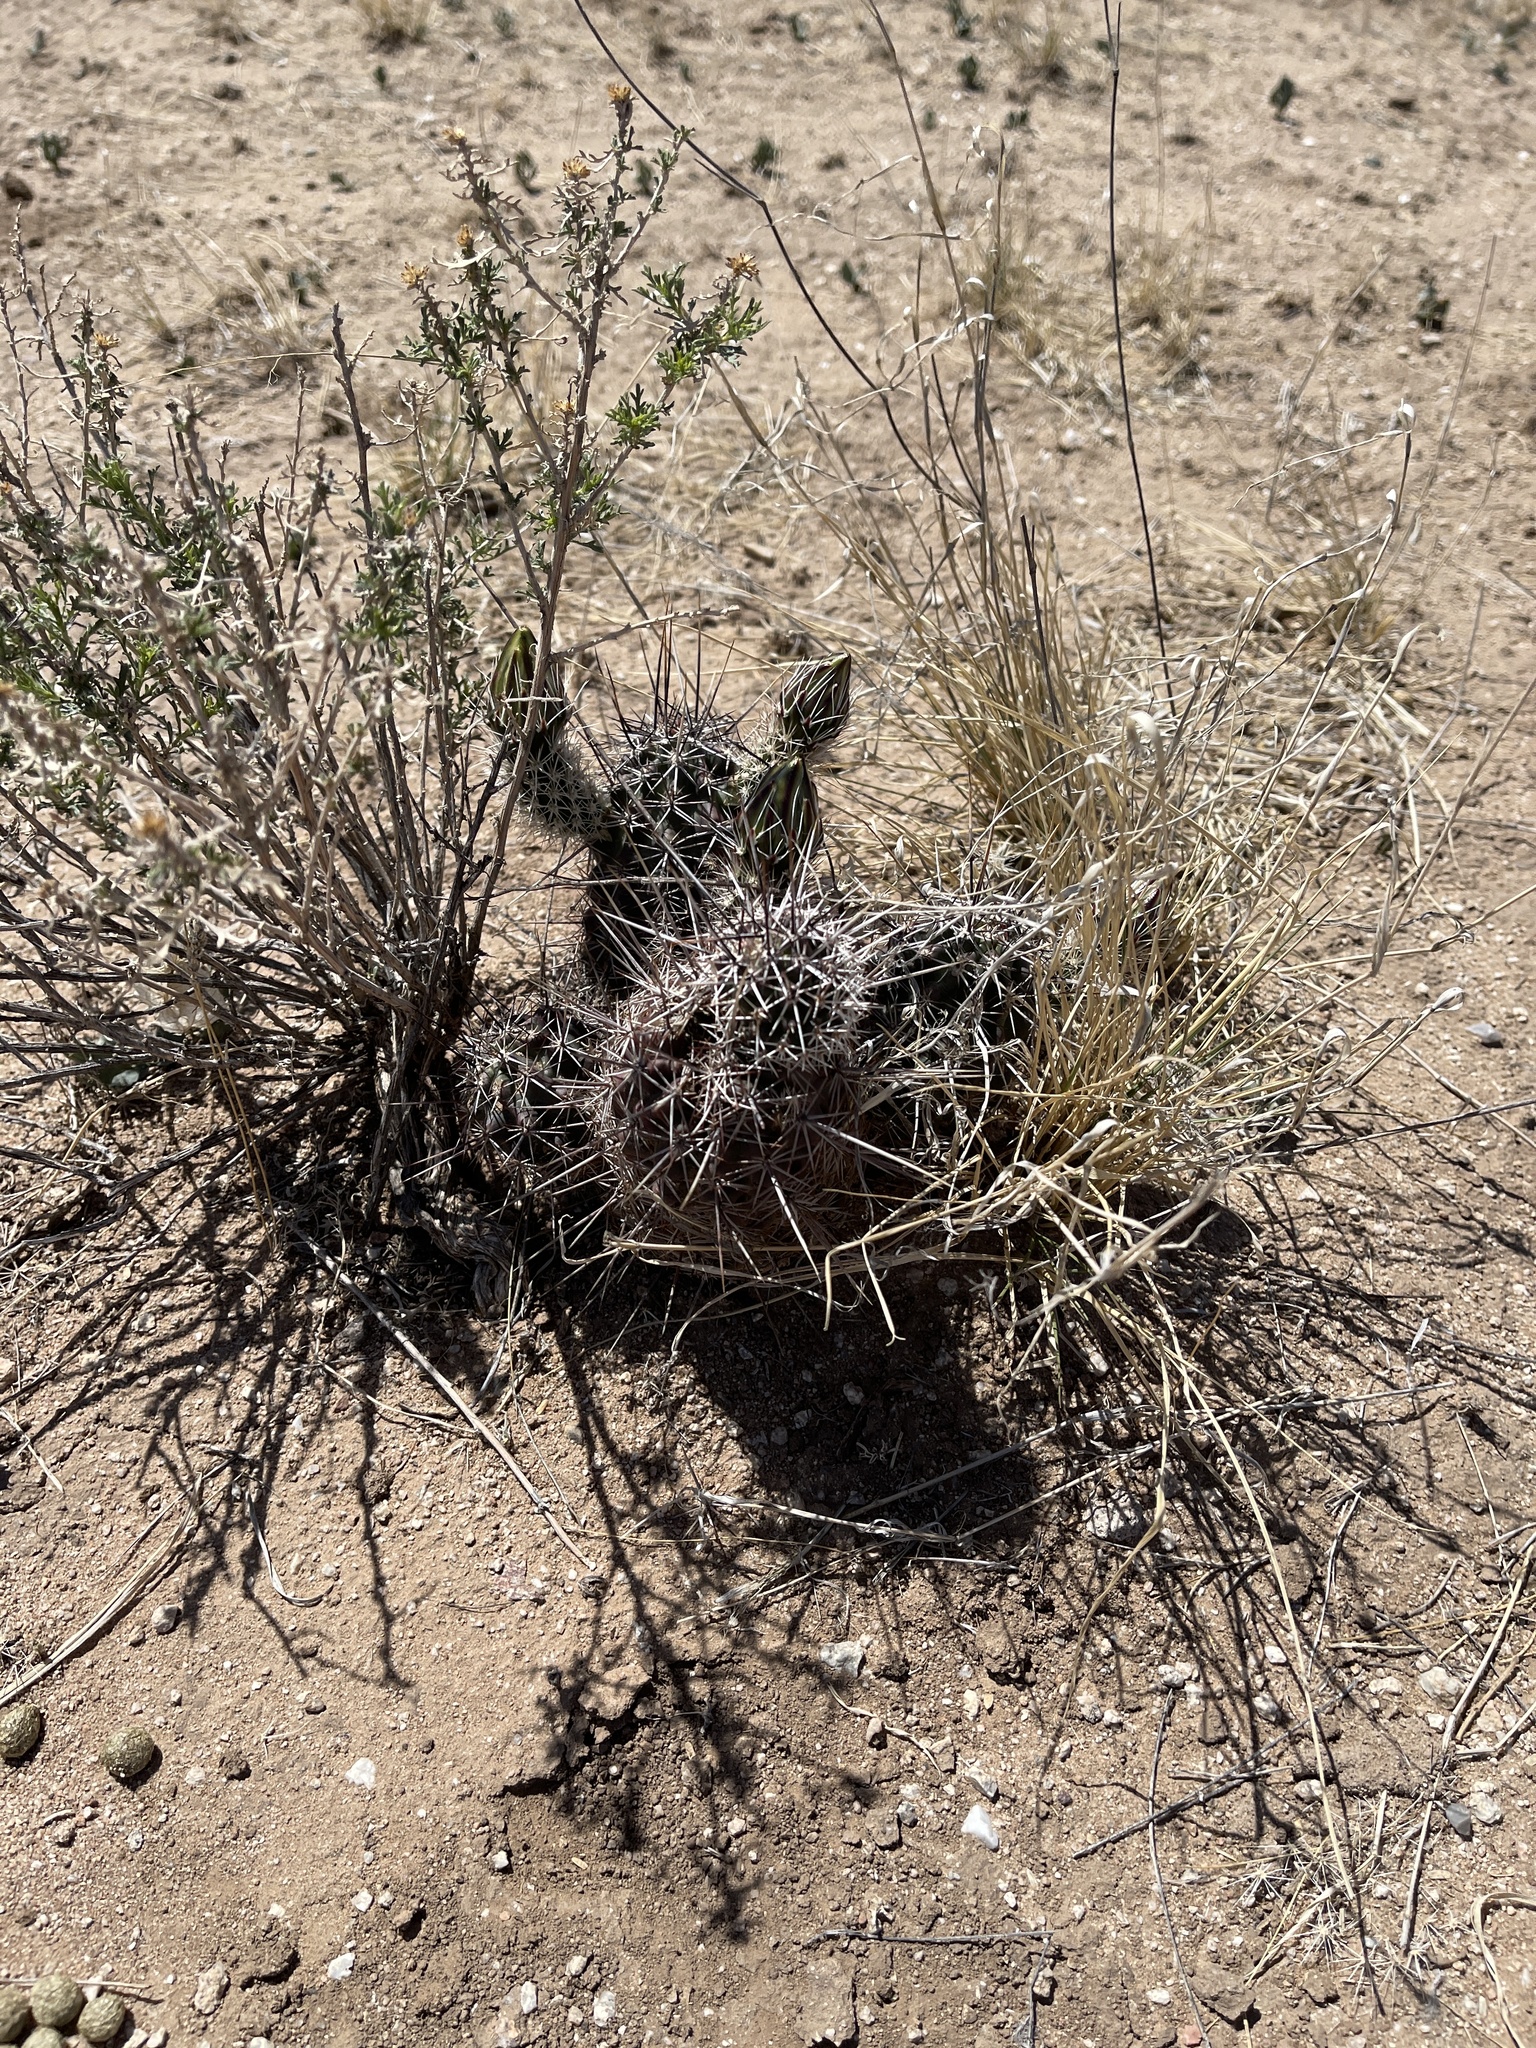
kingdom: Plantae
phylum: Tracheophyta
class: Magnoliopsida
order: Caryophyllales
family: Cactaceae
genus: Echinocereus
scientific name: Echinocereus fasciculatus
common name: Bundle hedgehog
